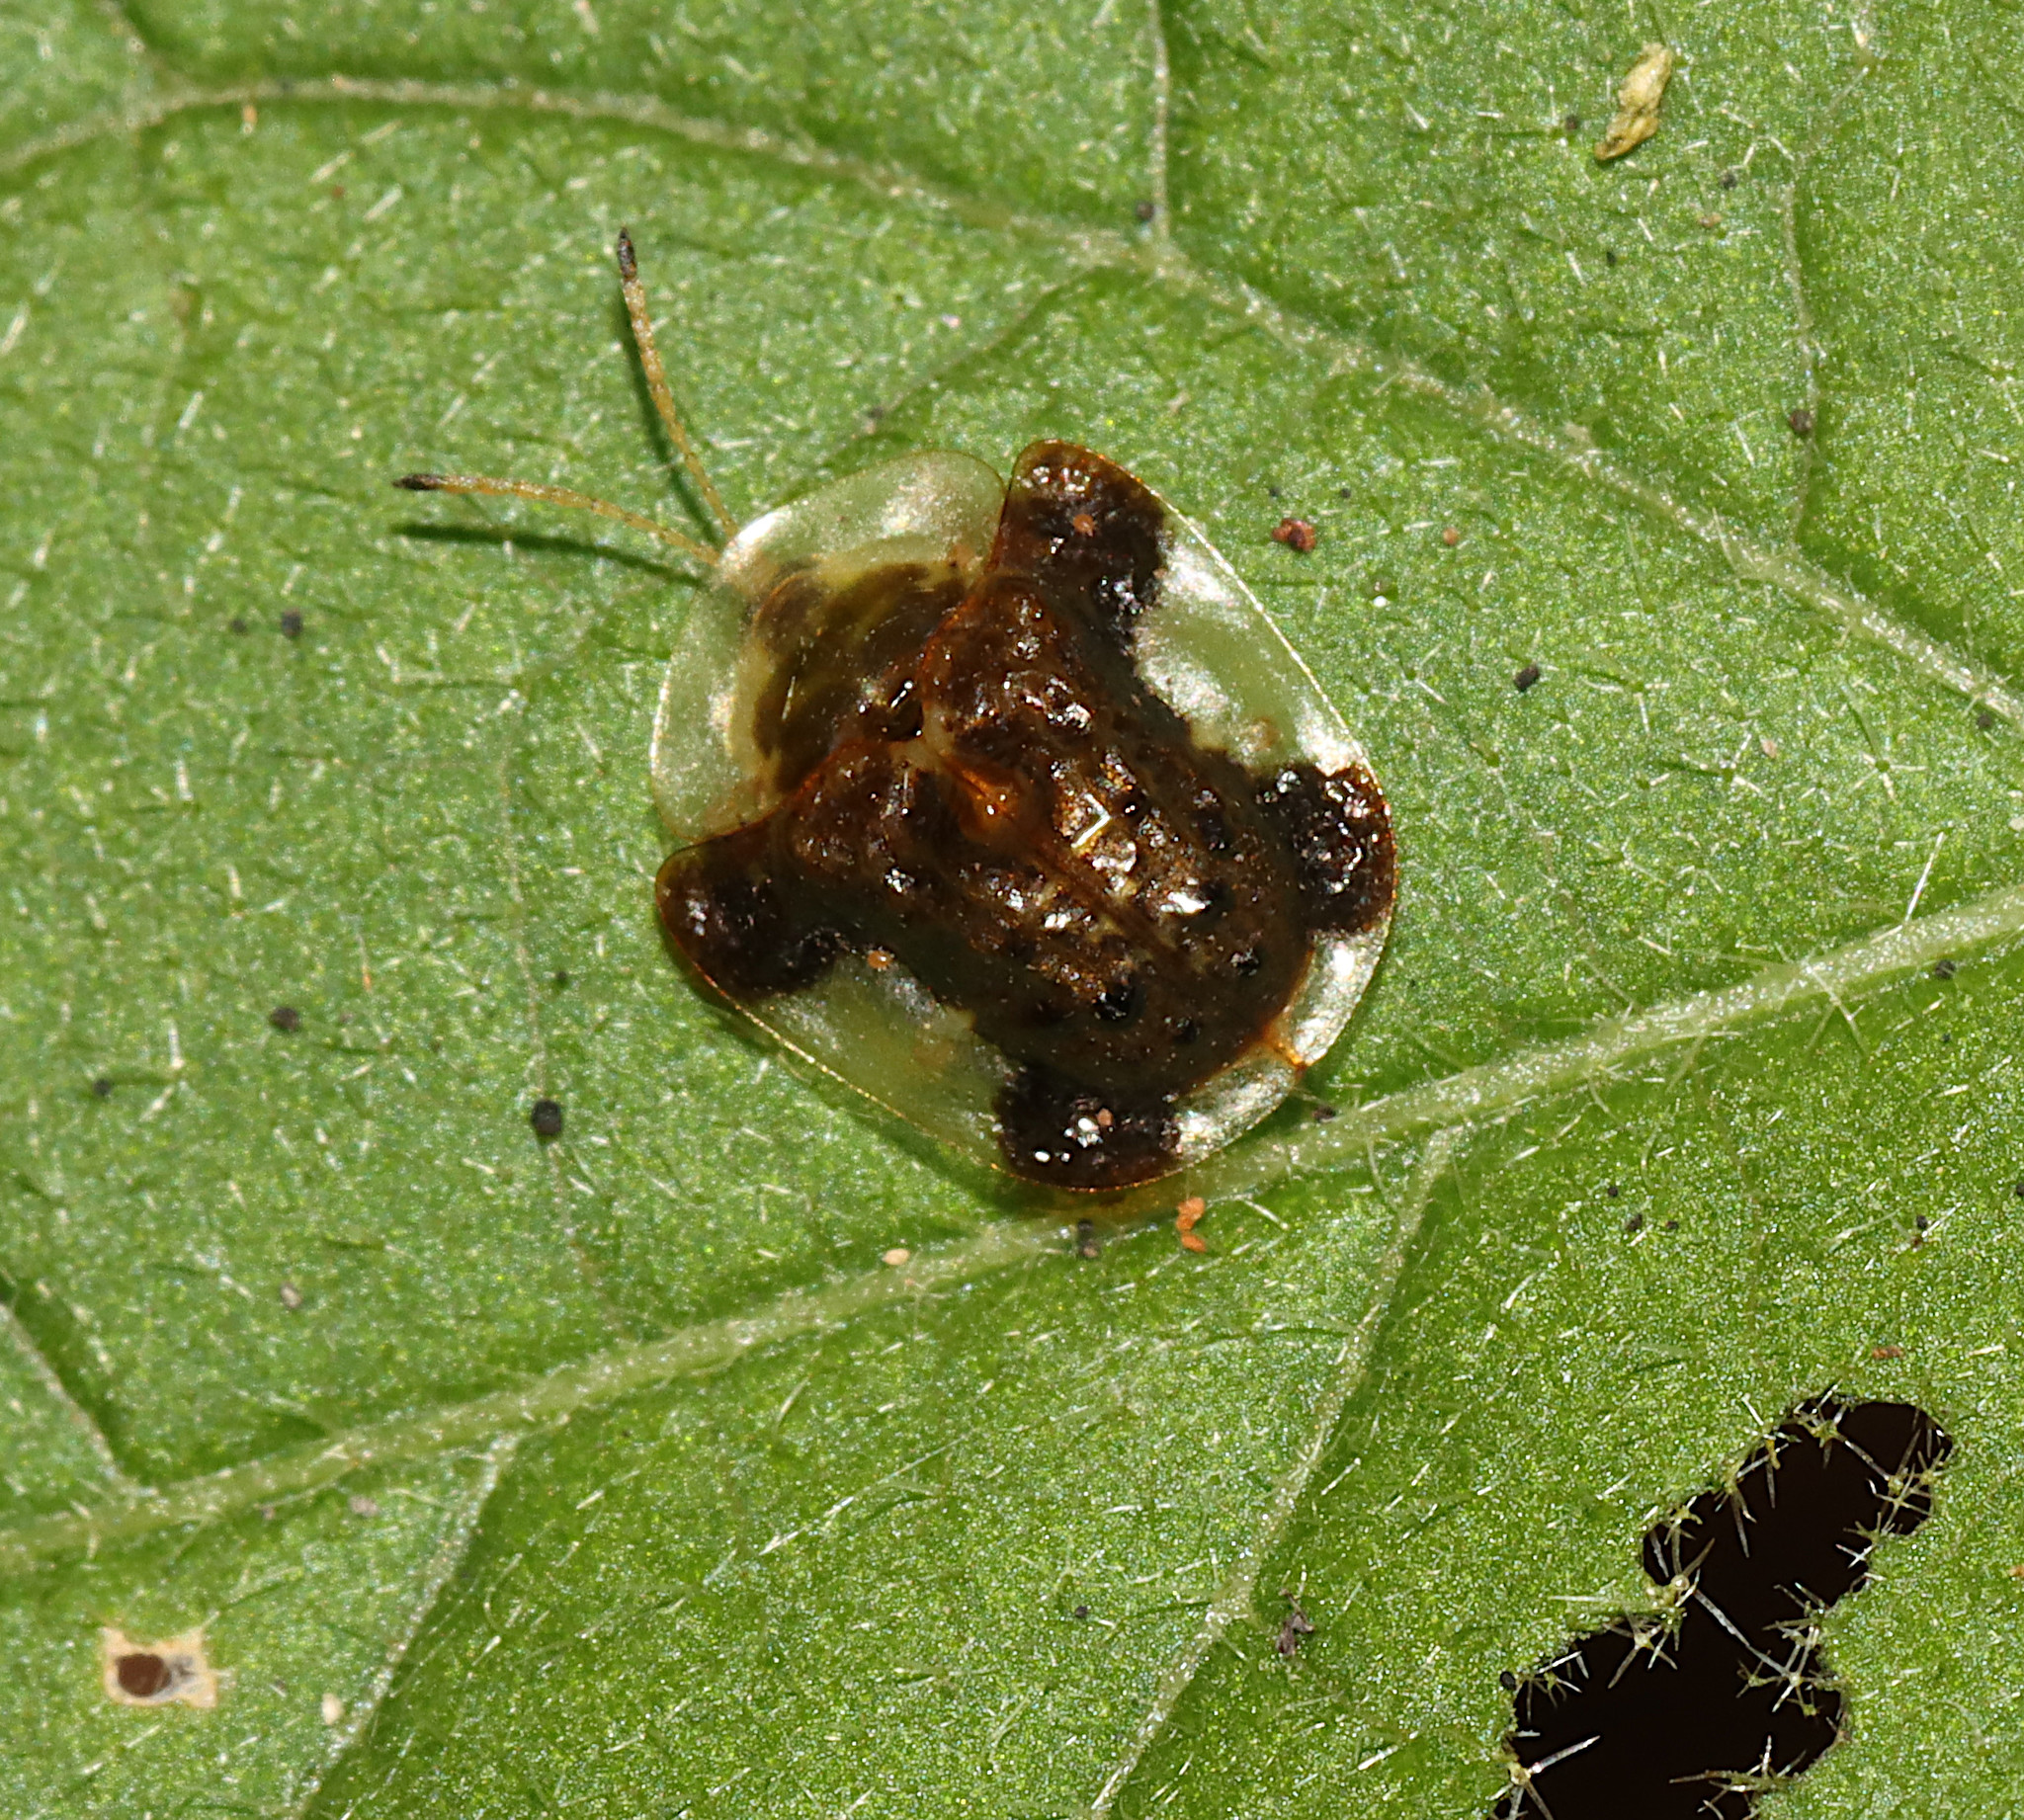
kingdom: Animalia
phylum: Arthropoda
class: Insecta
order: Coleoptera
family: Chrysomelidae
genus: Helocassis
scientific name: Helocassis clavata
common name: Clavate tortoise beetle
